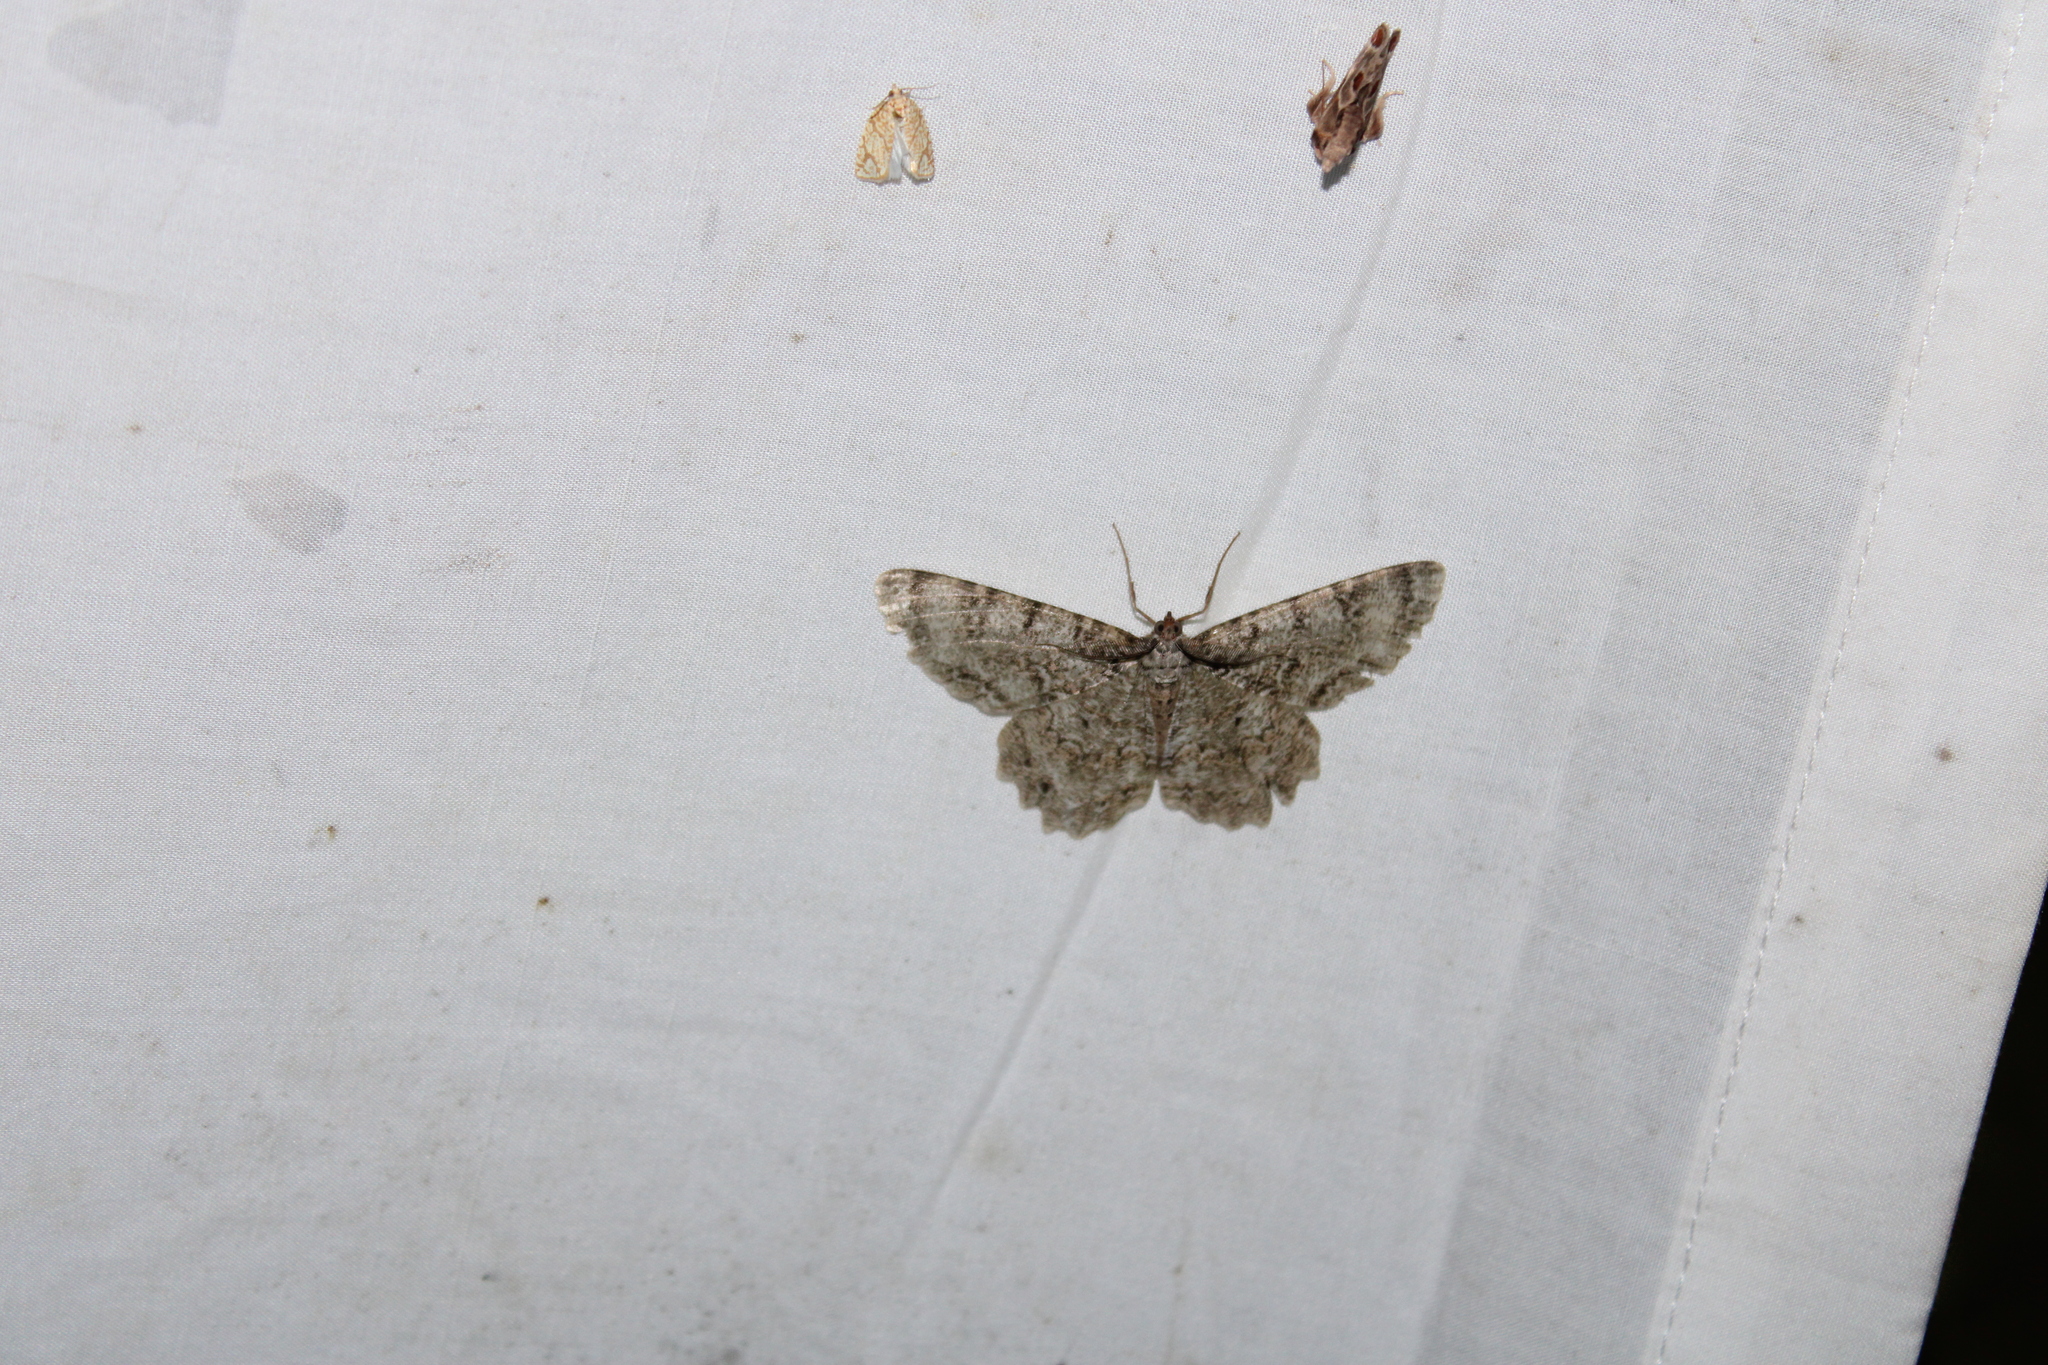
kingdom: Animalia
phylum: Arthropoda
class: Insecta
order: Lepidoptera
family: Geometridae
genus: Epimecis
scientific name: Epimecis hortaria
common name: Tulip-tree beauty
